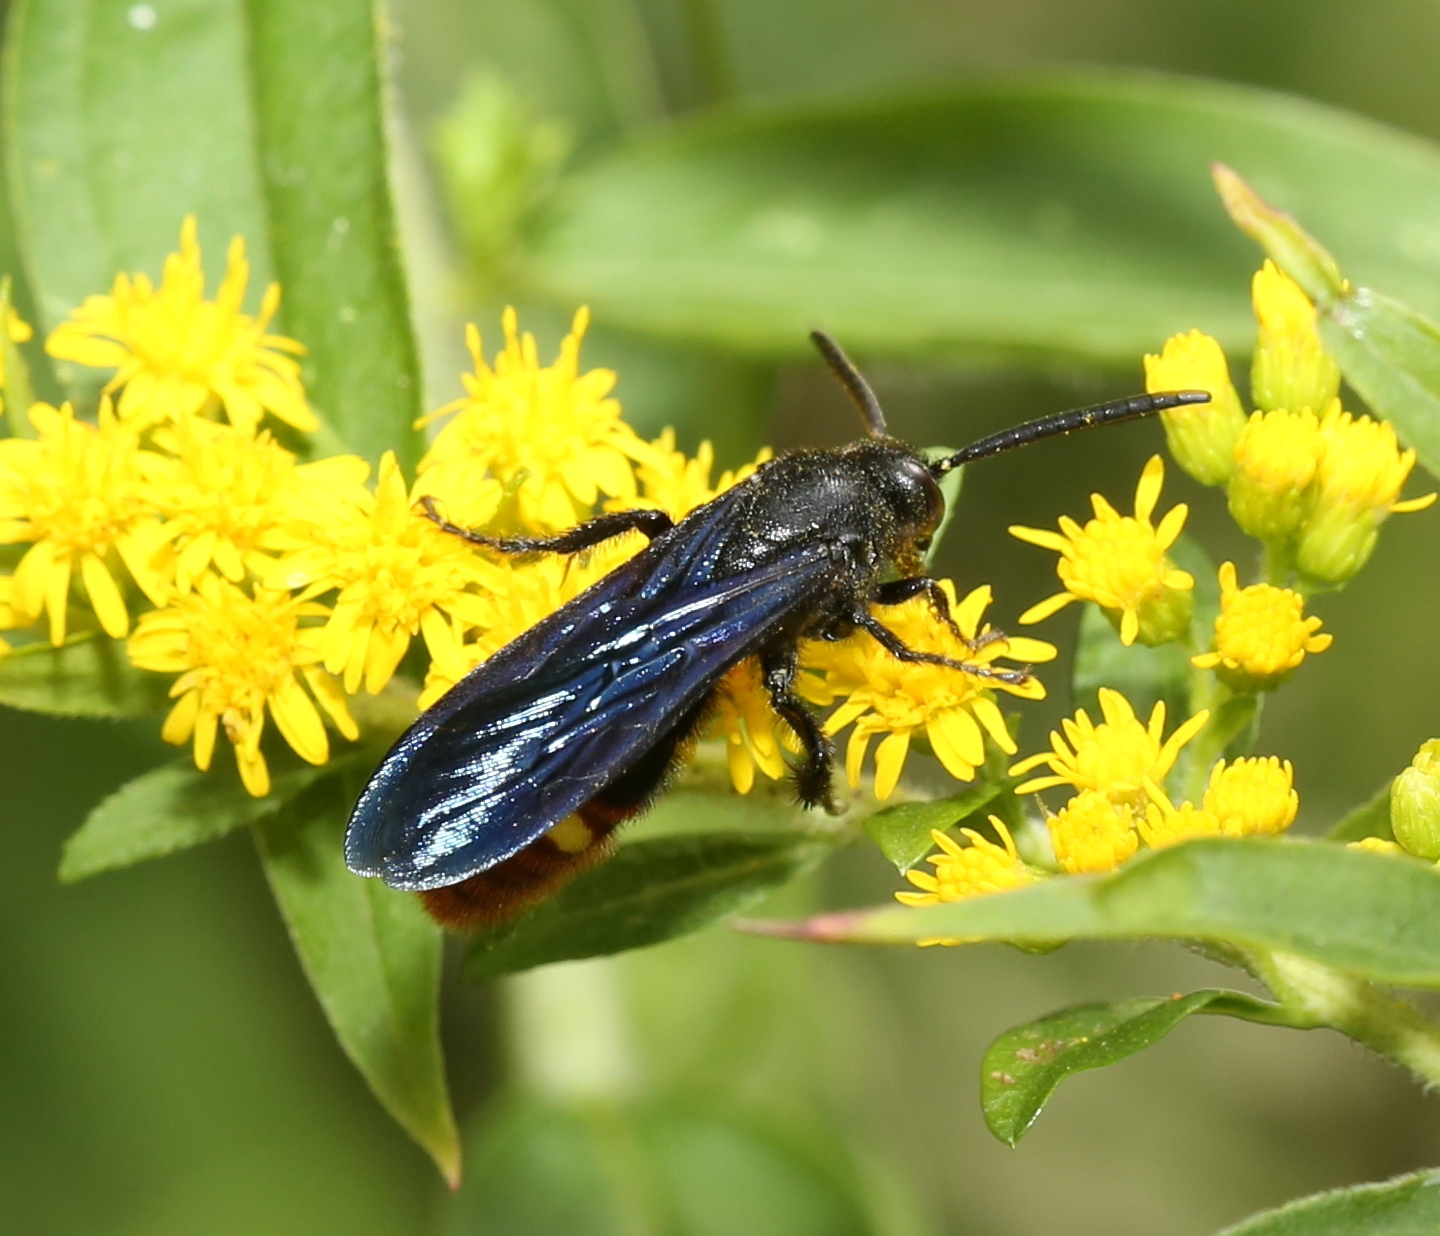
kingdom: Animalia
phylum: Arthropoda
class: Insecta
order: Hymenoptera
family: Scoliidae
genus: Scolia
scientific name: Scolia dubia
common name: Blue-winged scoliid wasp
